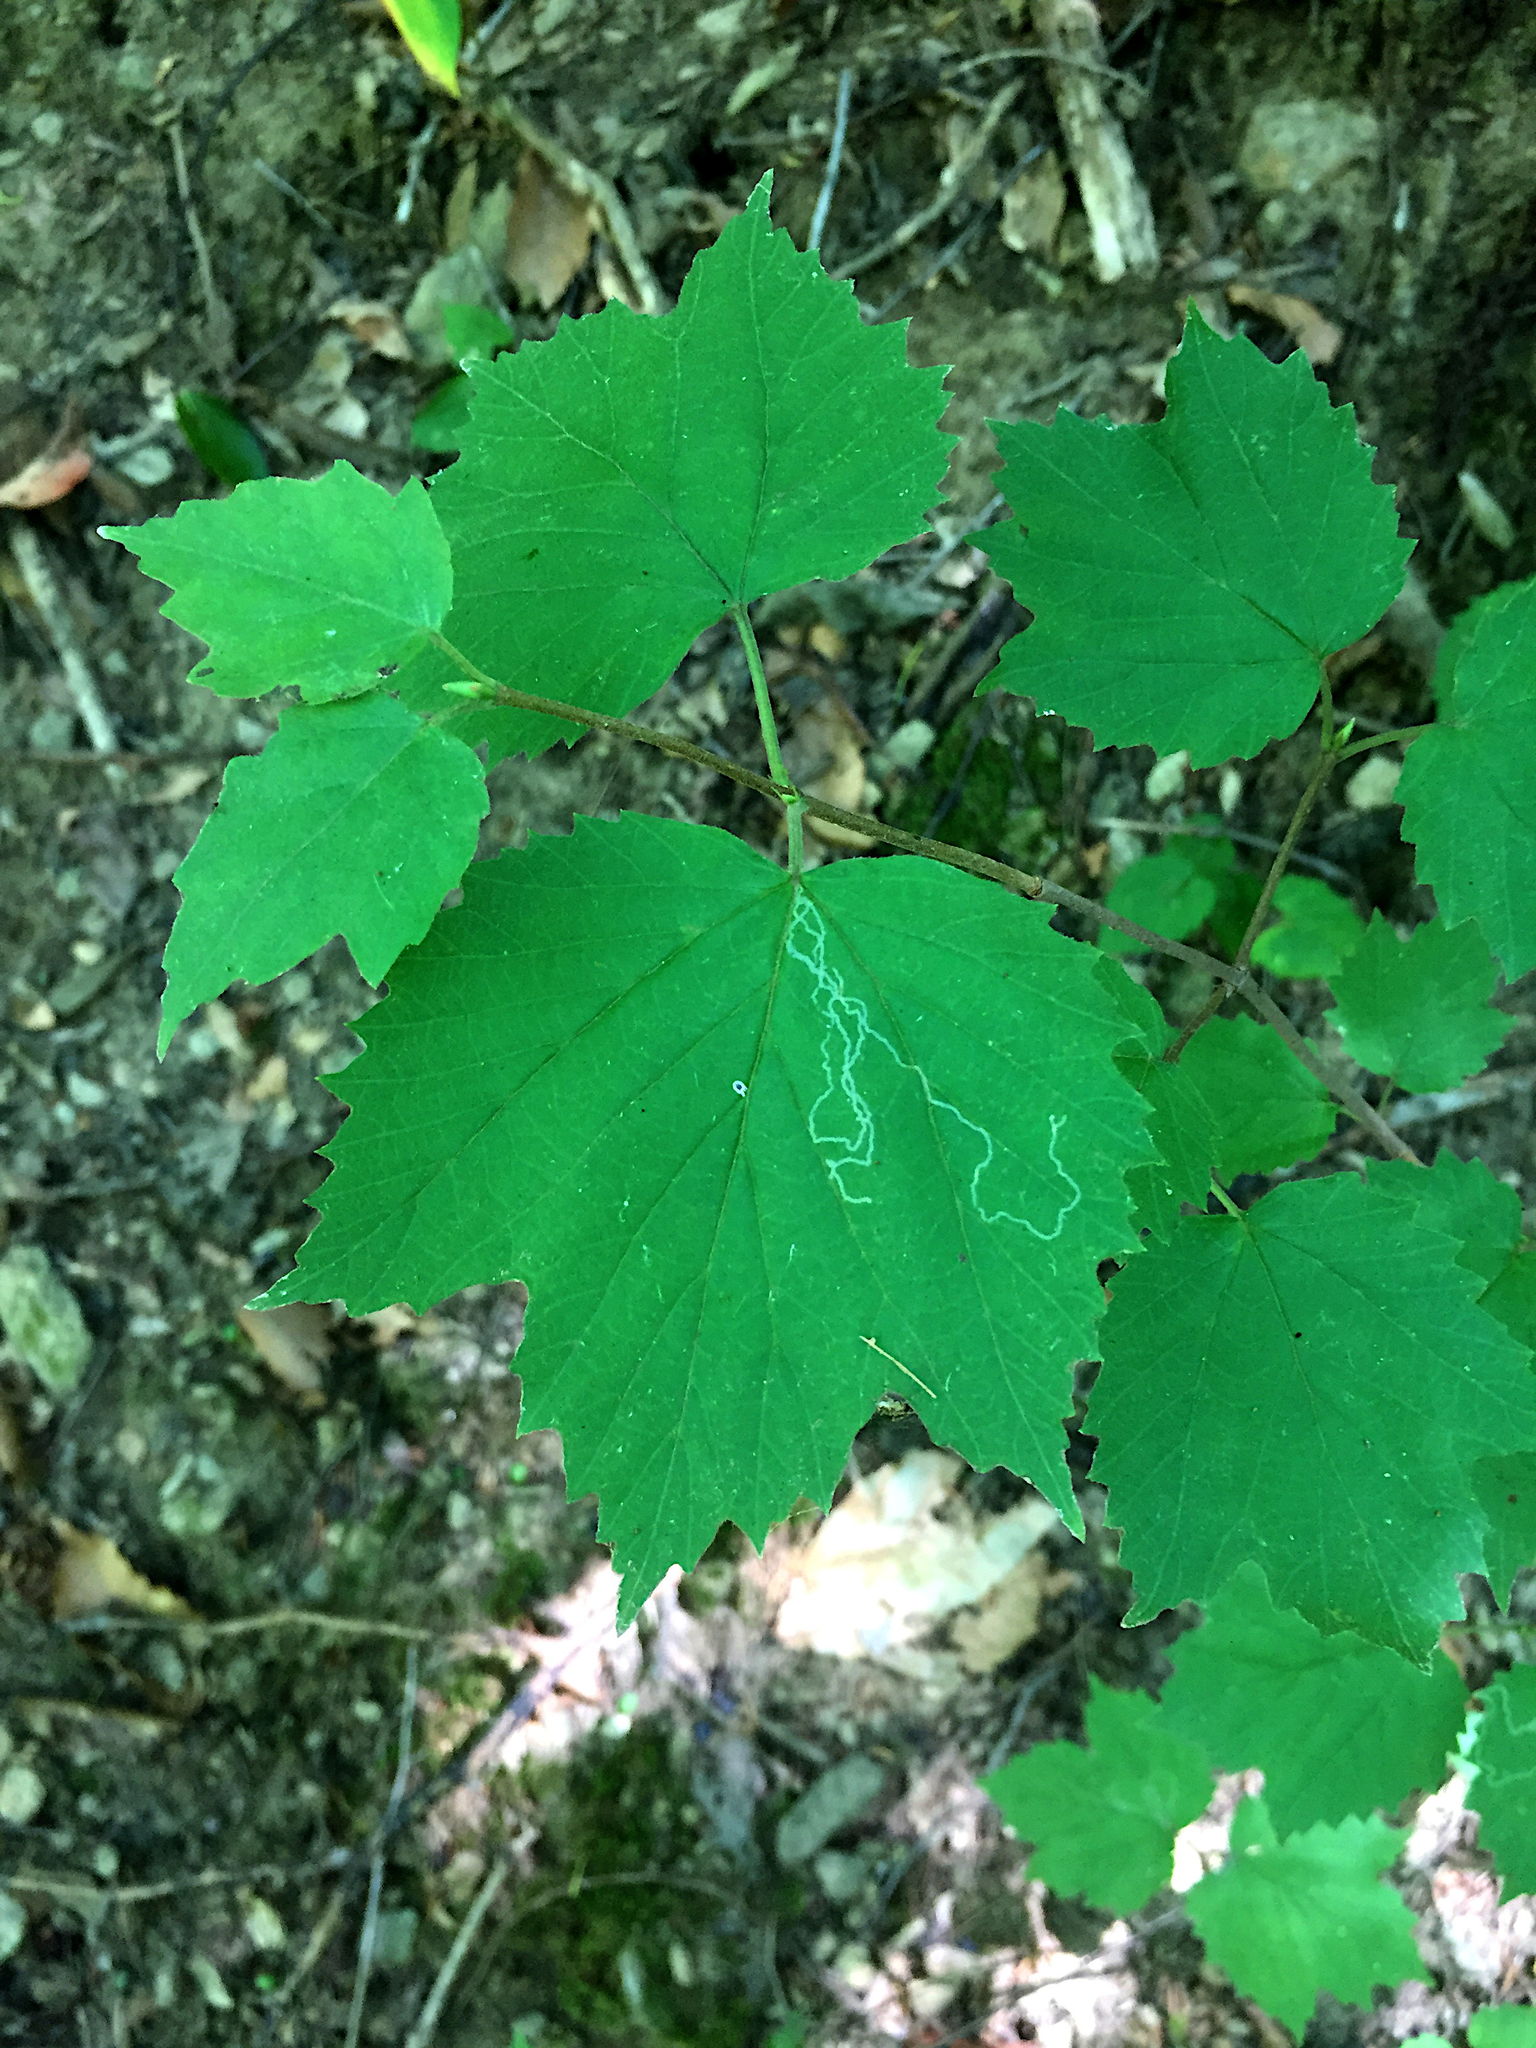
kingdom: Animalia
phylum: Arthropoda
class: Insecta
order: Lepidoptera
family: Gracillariidae
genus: Marmara
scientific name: Marmara viburnella
